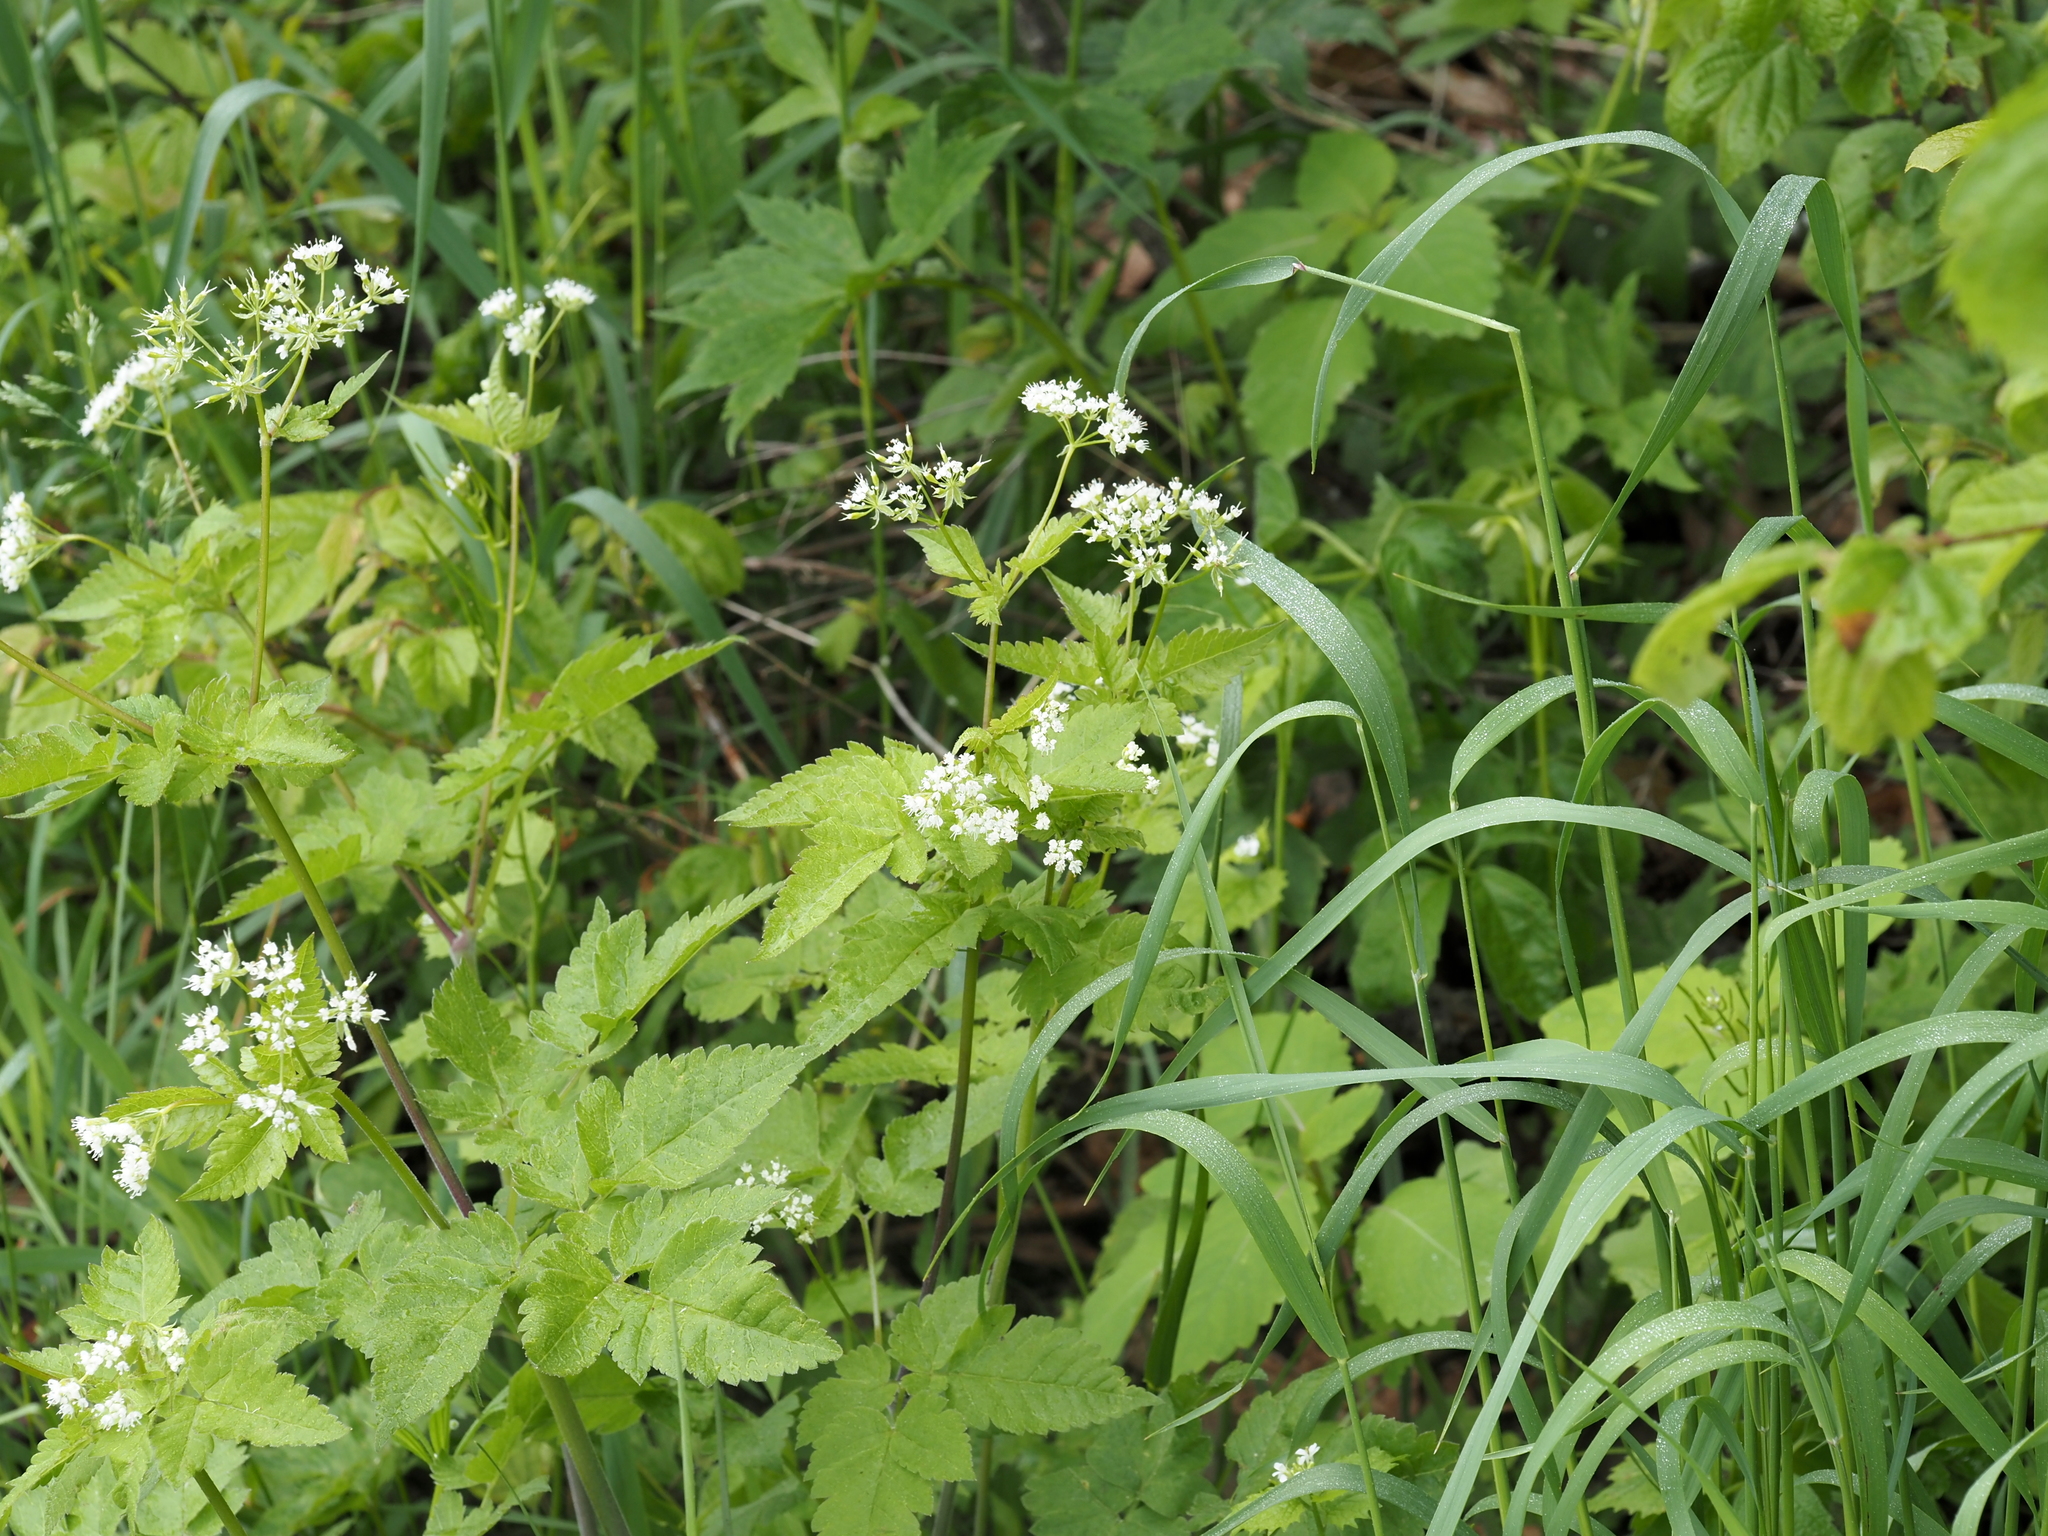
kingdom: Plantae
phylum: Tracheophyta
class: Magnoliopsida
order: Apiales
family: Apiaceae
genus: Osmorhiza
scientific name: Osmorhiza longistylis
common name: Smooth sweet cicely
